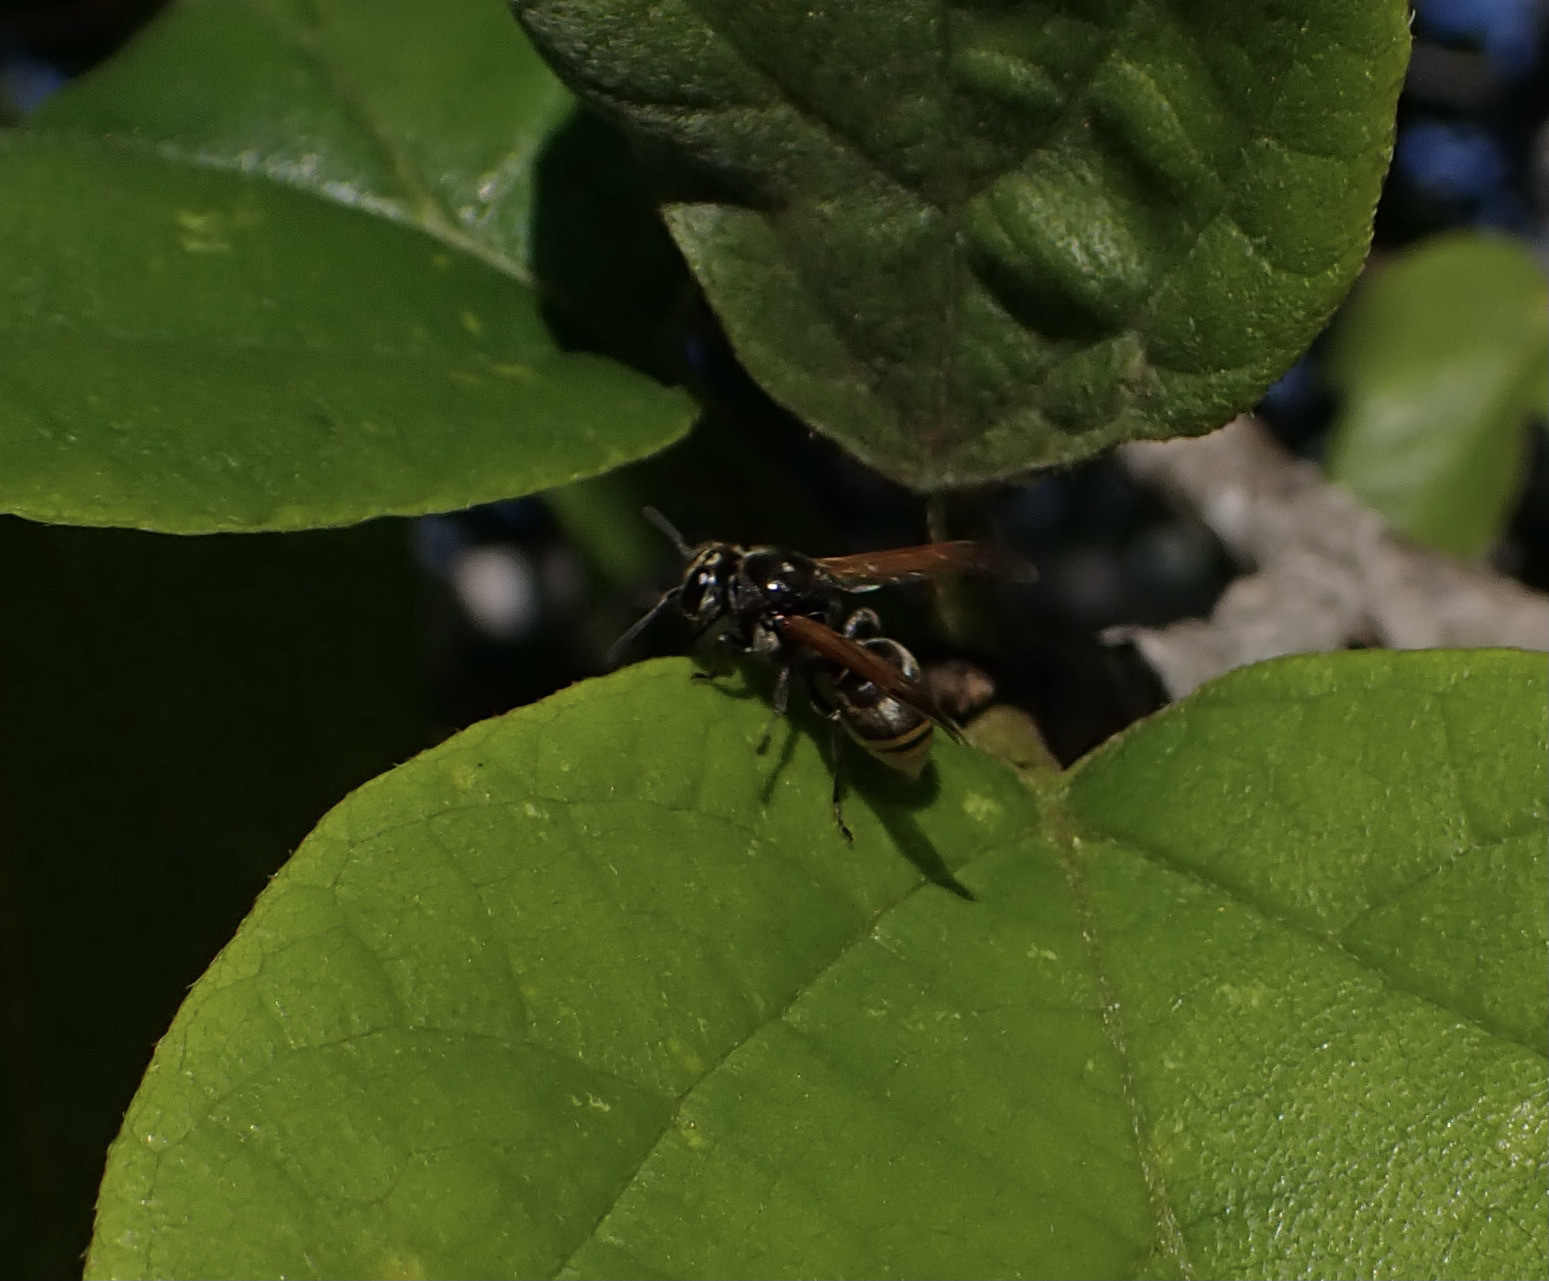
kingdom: Animalia
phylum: Arthropoda
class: Insecta
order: Hymenoptera
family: Vespidae
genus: Brachygastra
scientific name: Brachygastra mellifica
